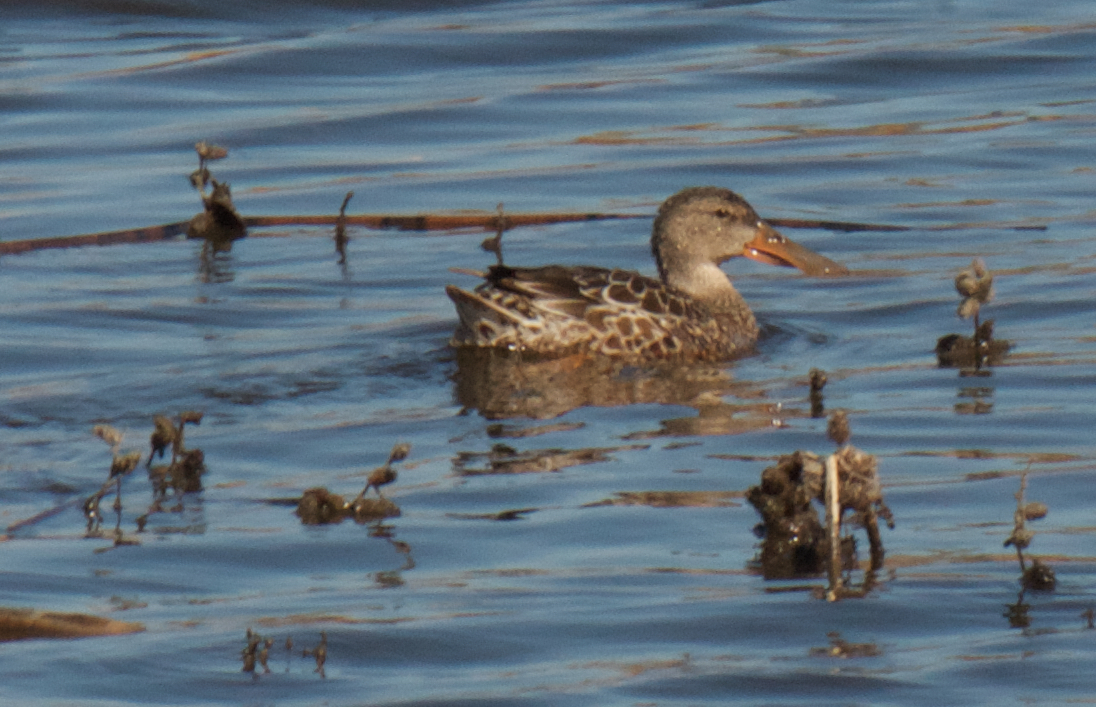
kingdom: Animalia
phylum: Chordata
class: Aves
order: Anseriformes
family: Anatidae
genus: Spatula
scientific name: Spatula clypeata
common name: Northern shoveler
